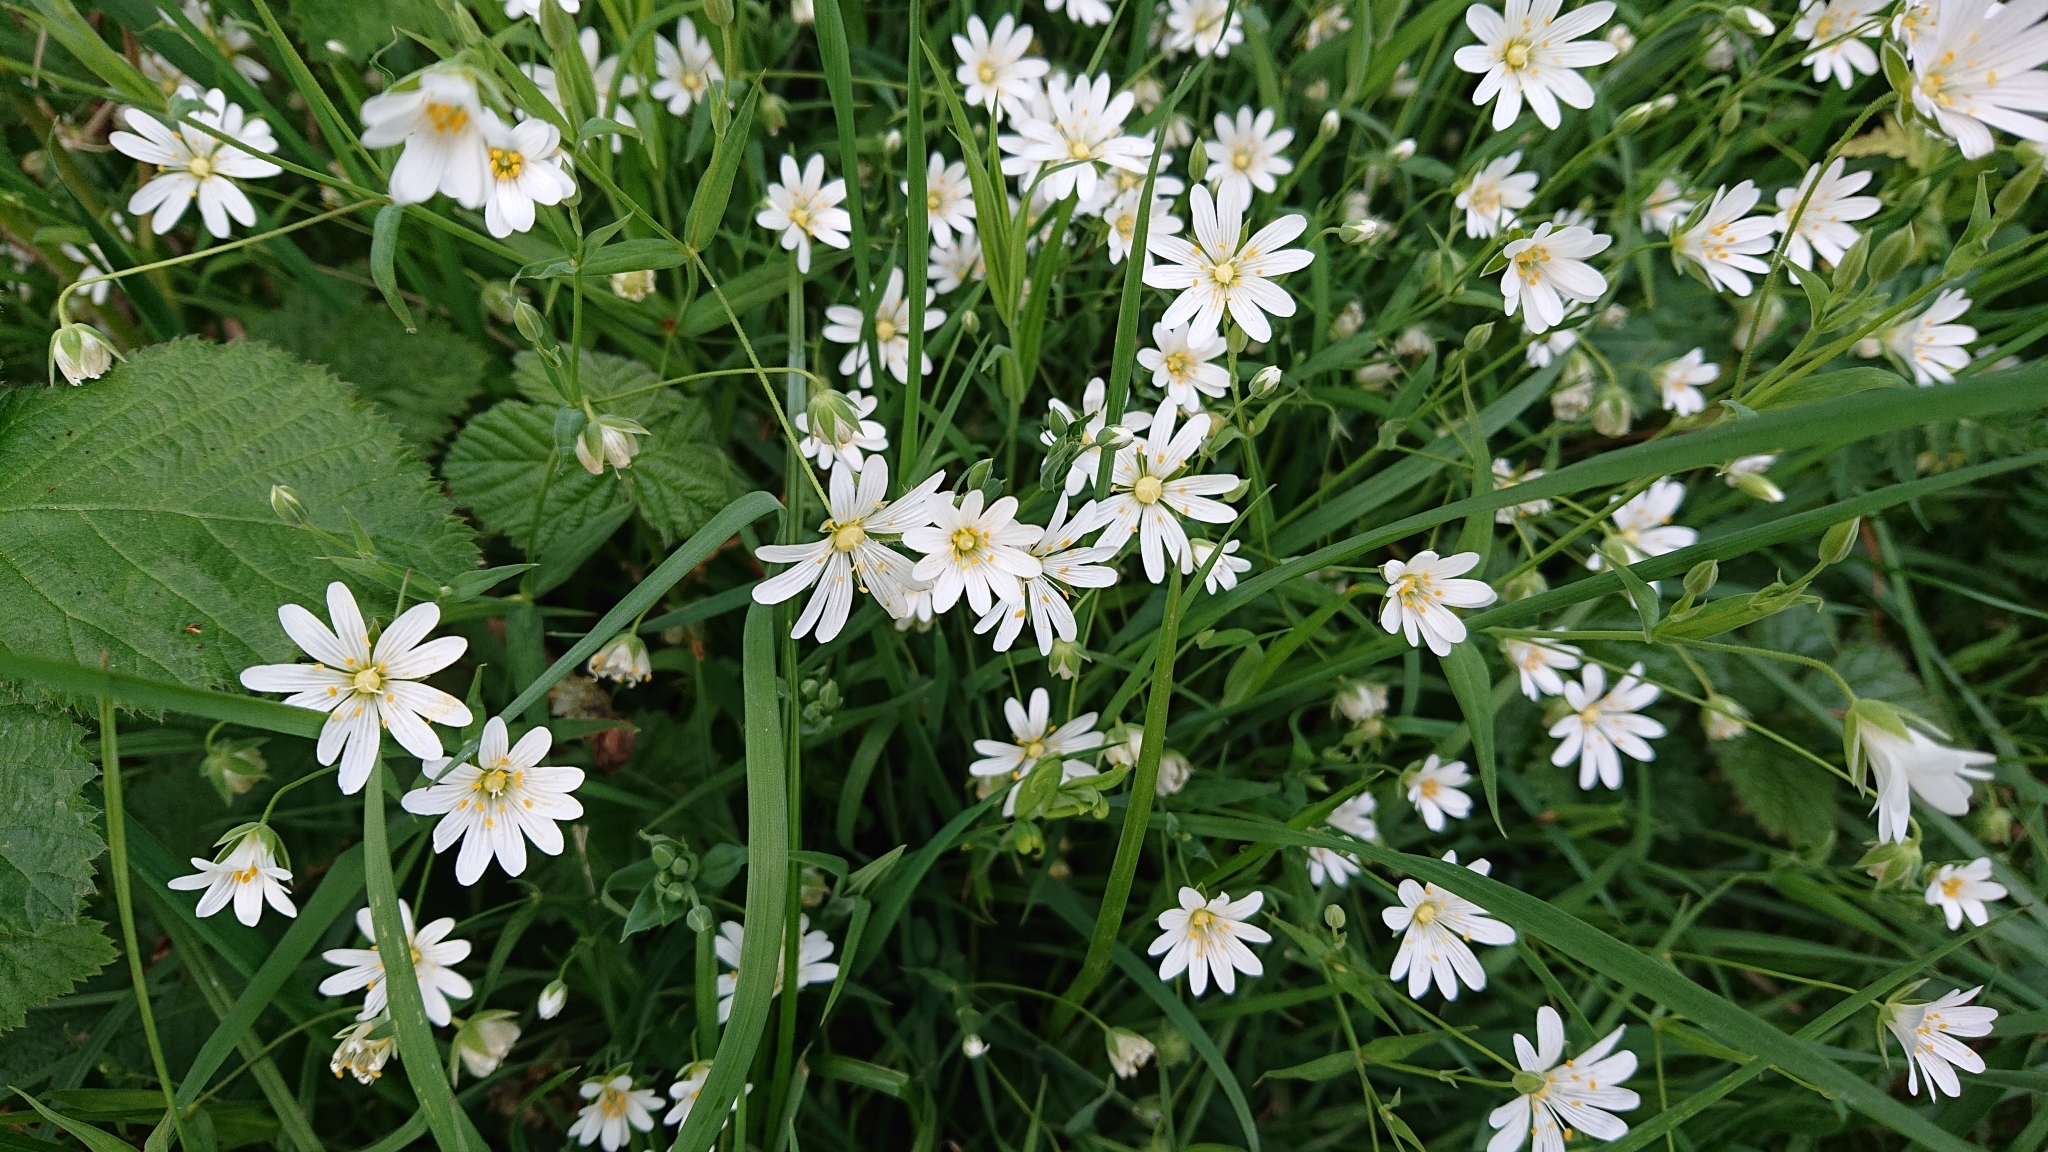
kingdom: Plantae
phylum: Tracheophyta
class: Magnoliopsida
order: Caryophyllales
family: Caryophyllaceae
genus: Rabelera
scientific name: Rabelera holostea
